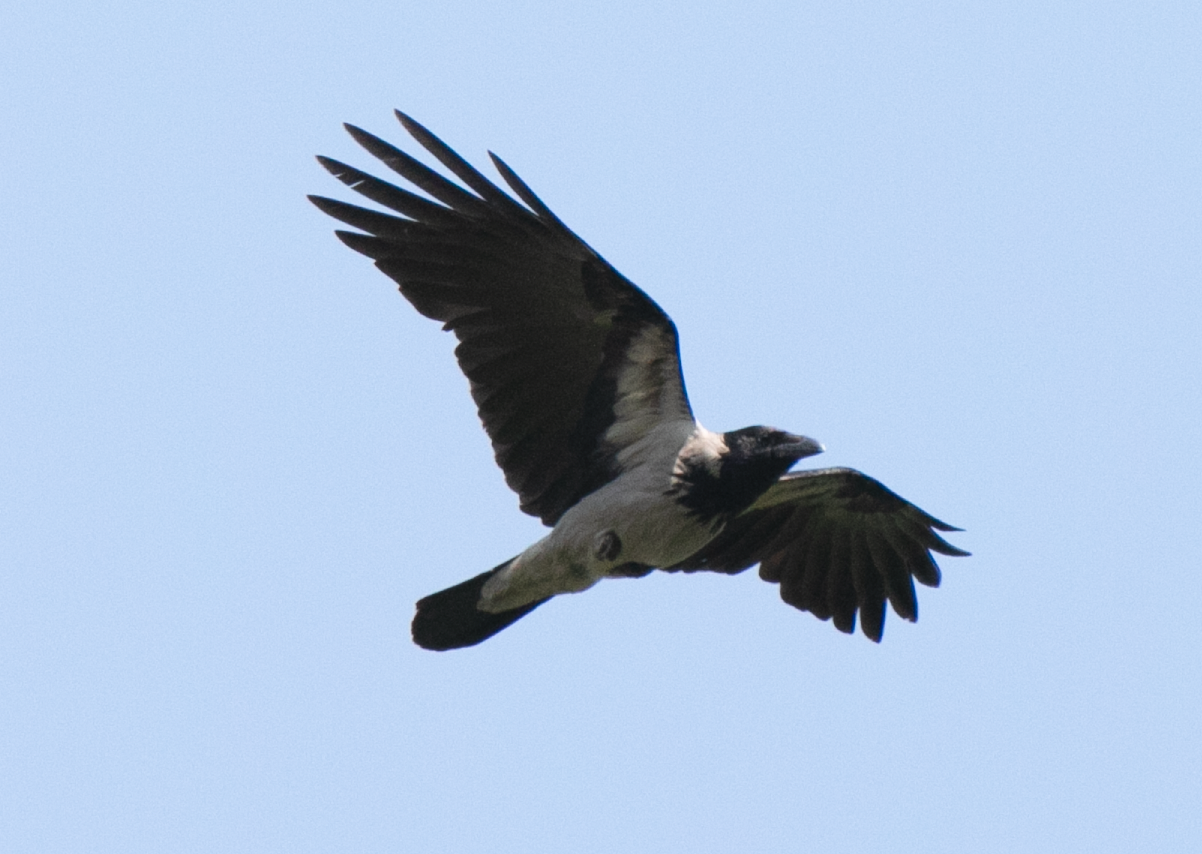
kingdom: Animalia
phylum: Chordata
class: Aves
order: Passeriformes
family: Corvidae
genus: Corvus
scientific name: Corvus cornix
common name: Hooded crow
